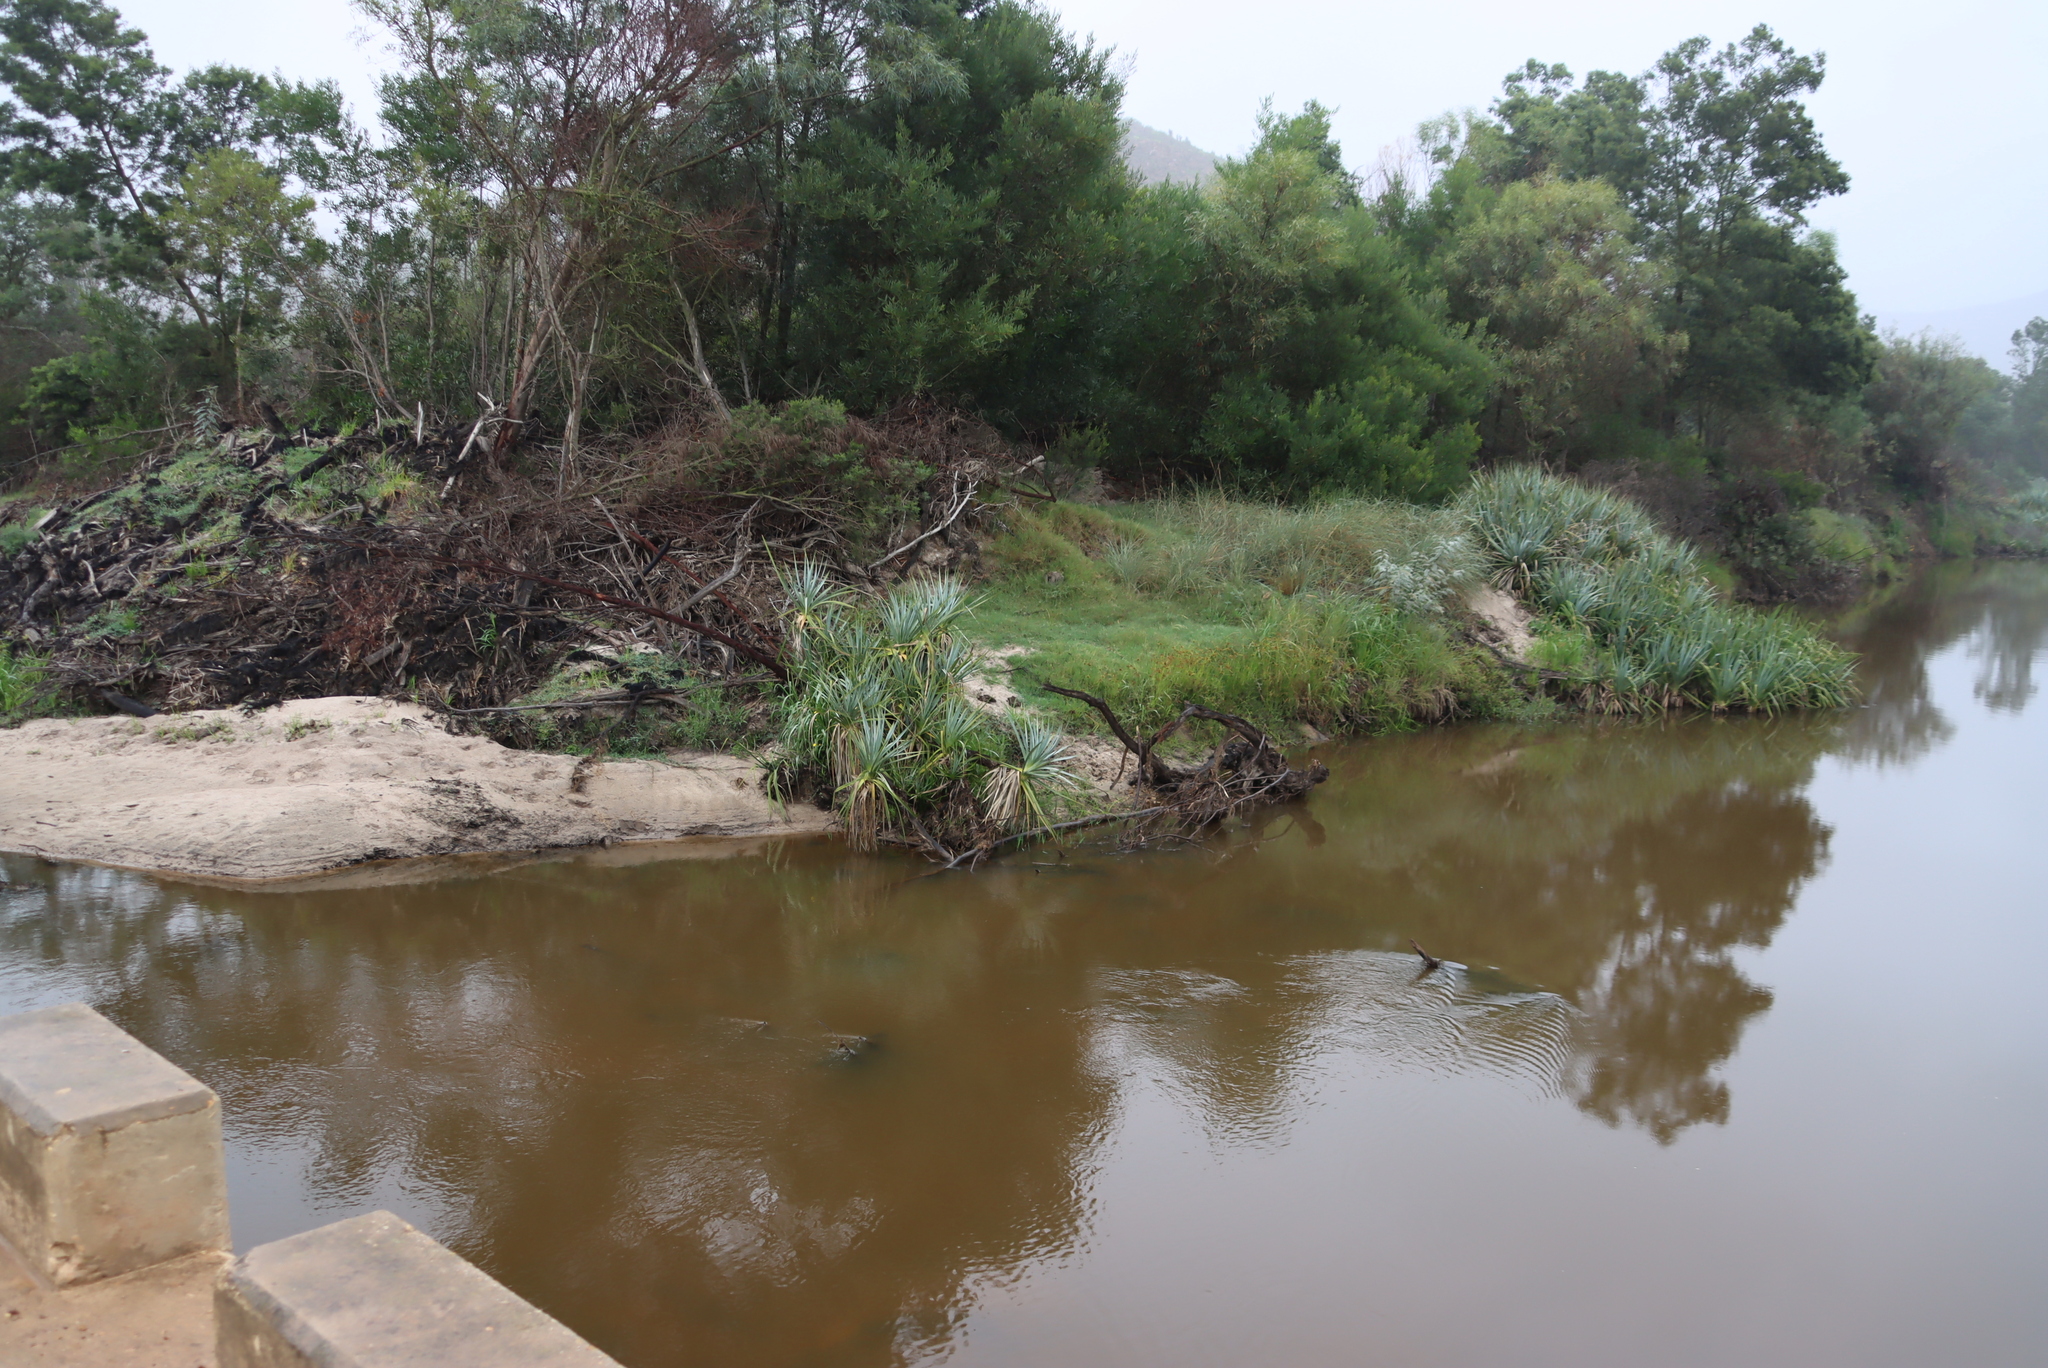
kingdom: Plantae
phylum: Tracheophyta
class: Liliopsida
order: Poales
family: Thurniaceae
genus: Prionium
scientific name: Prionium serratum
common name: Palmiet
